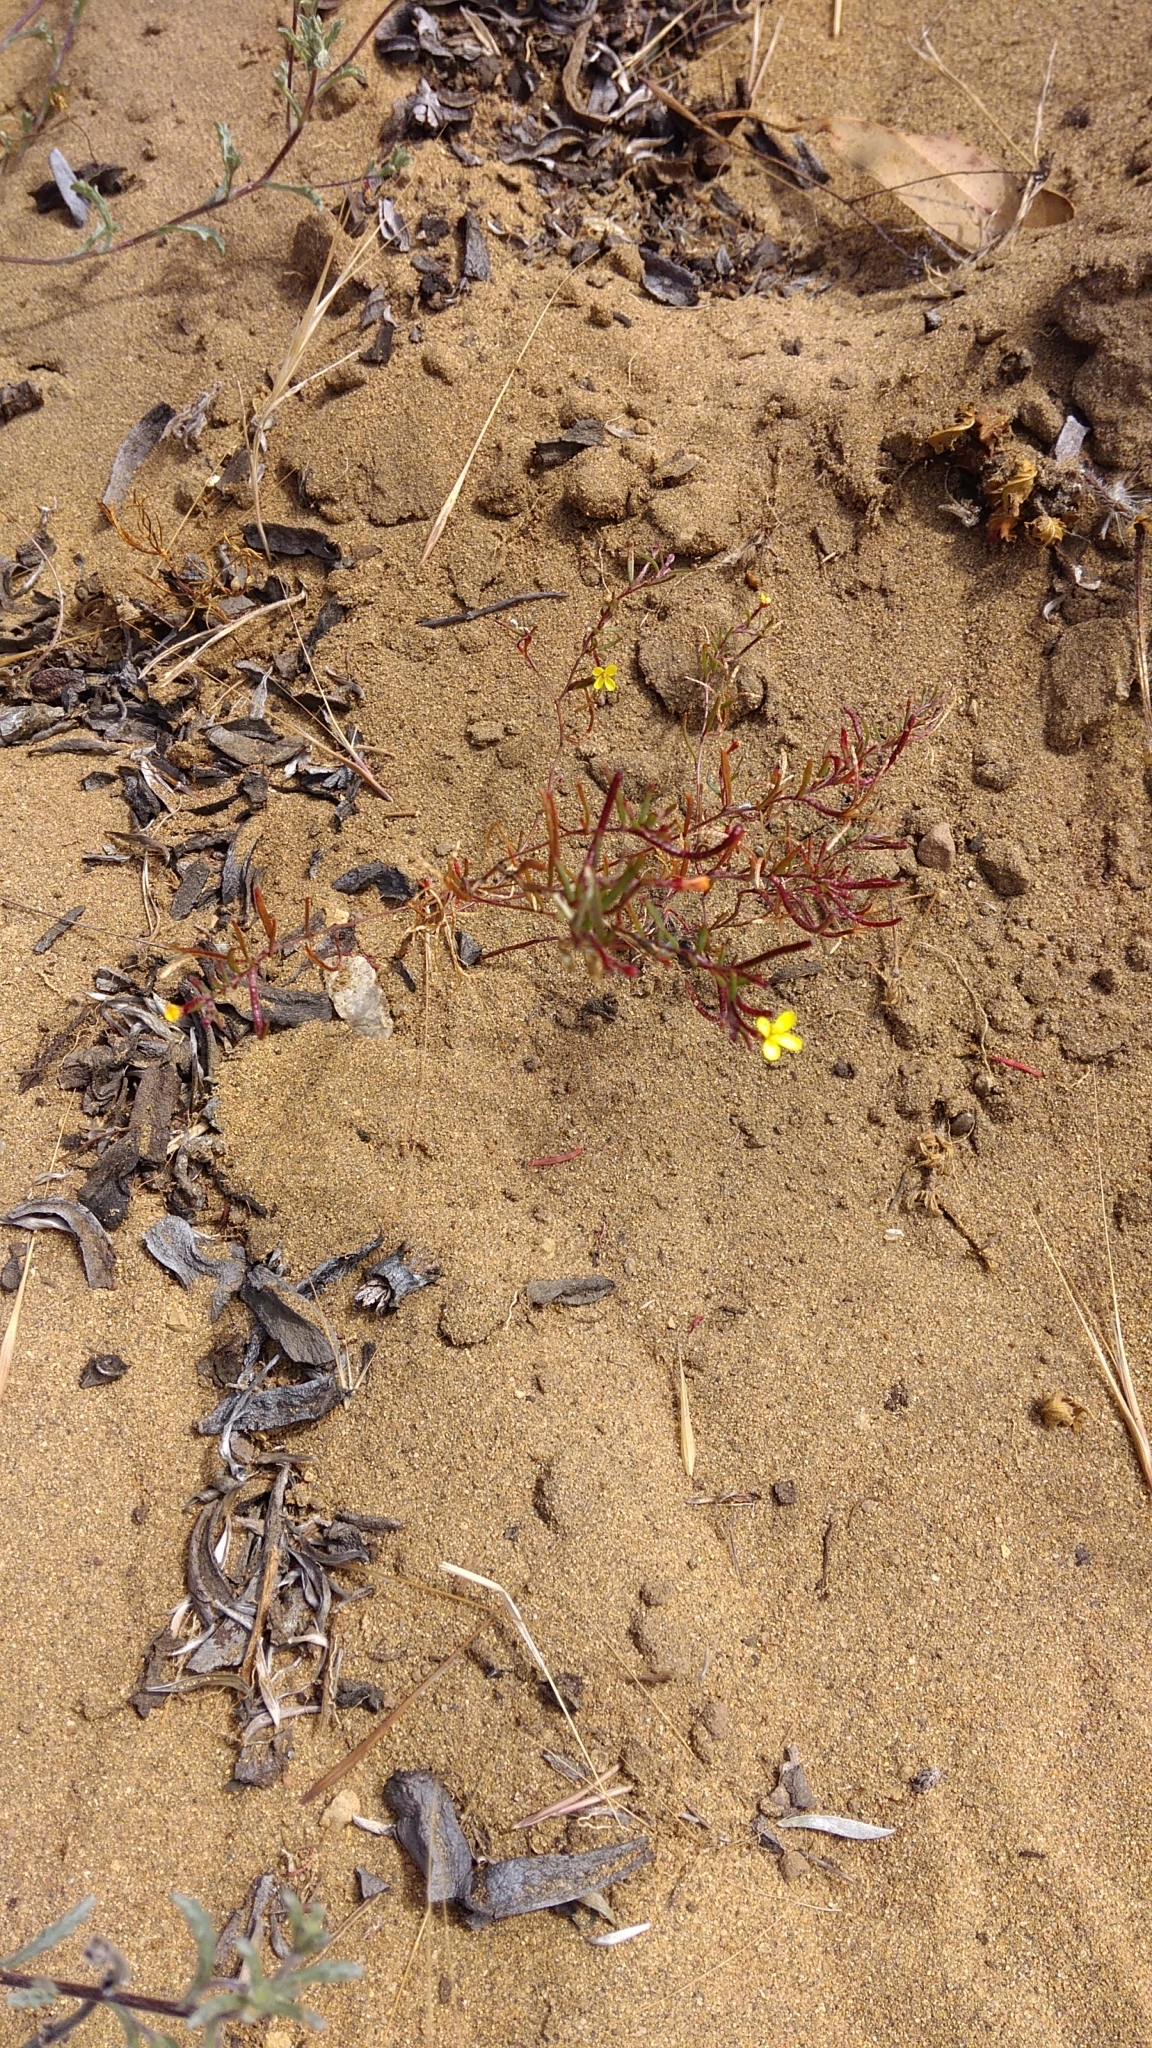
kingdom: Plantae
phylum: Tracheophyta
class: Magnoliopsida
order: Myrtales
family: Onagraceae
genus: Camissonia
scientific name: Camissonia strigulosa
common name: Contorted-primrose
